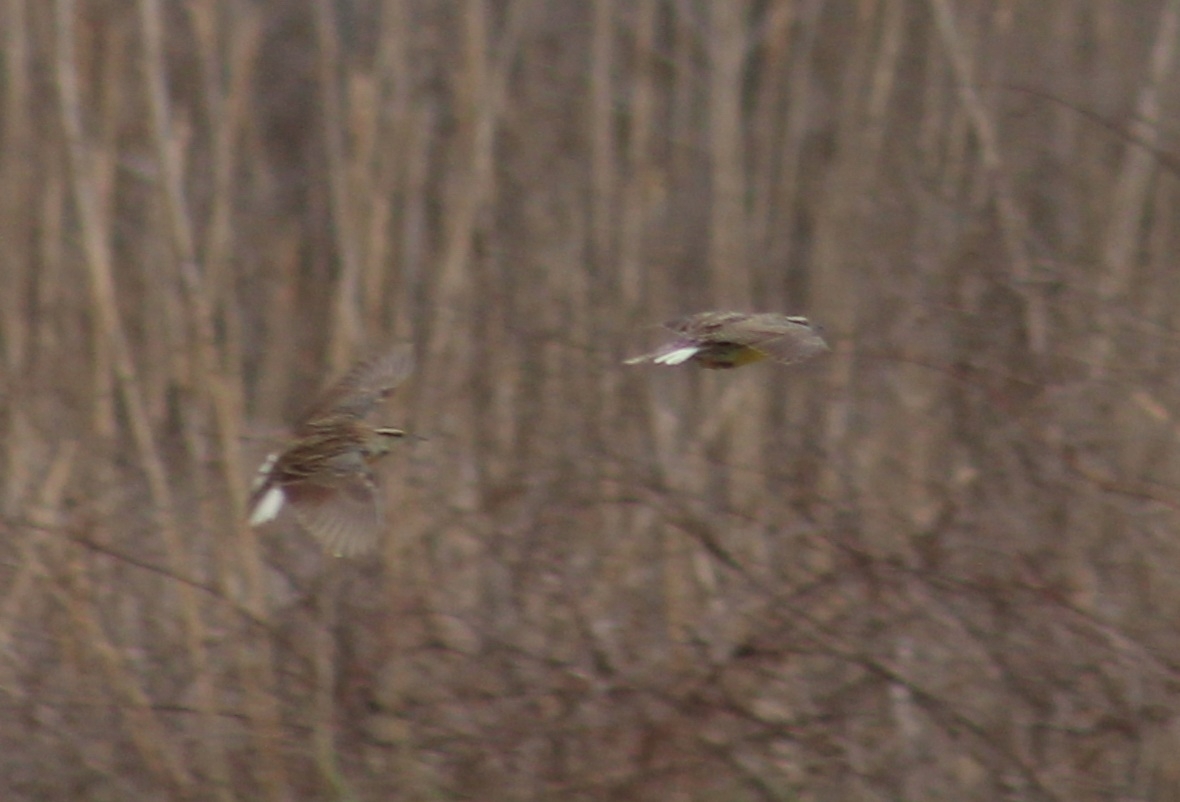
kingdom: Animalia
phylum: Chordata
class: Aves
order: Passeriformes
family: Icteridae
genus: Sturnella
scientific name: Sturnella magna
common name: Eastern meadowlark
